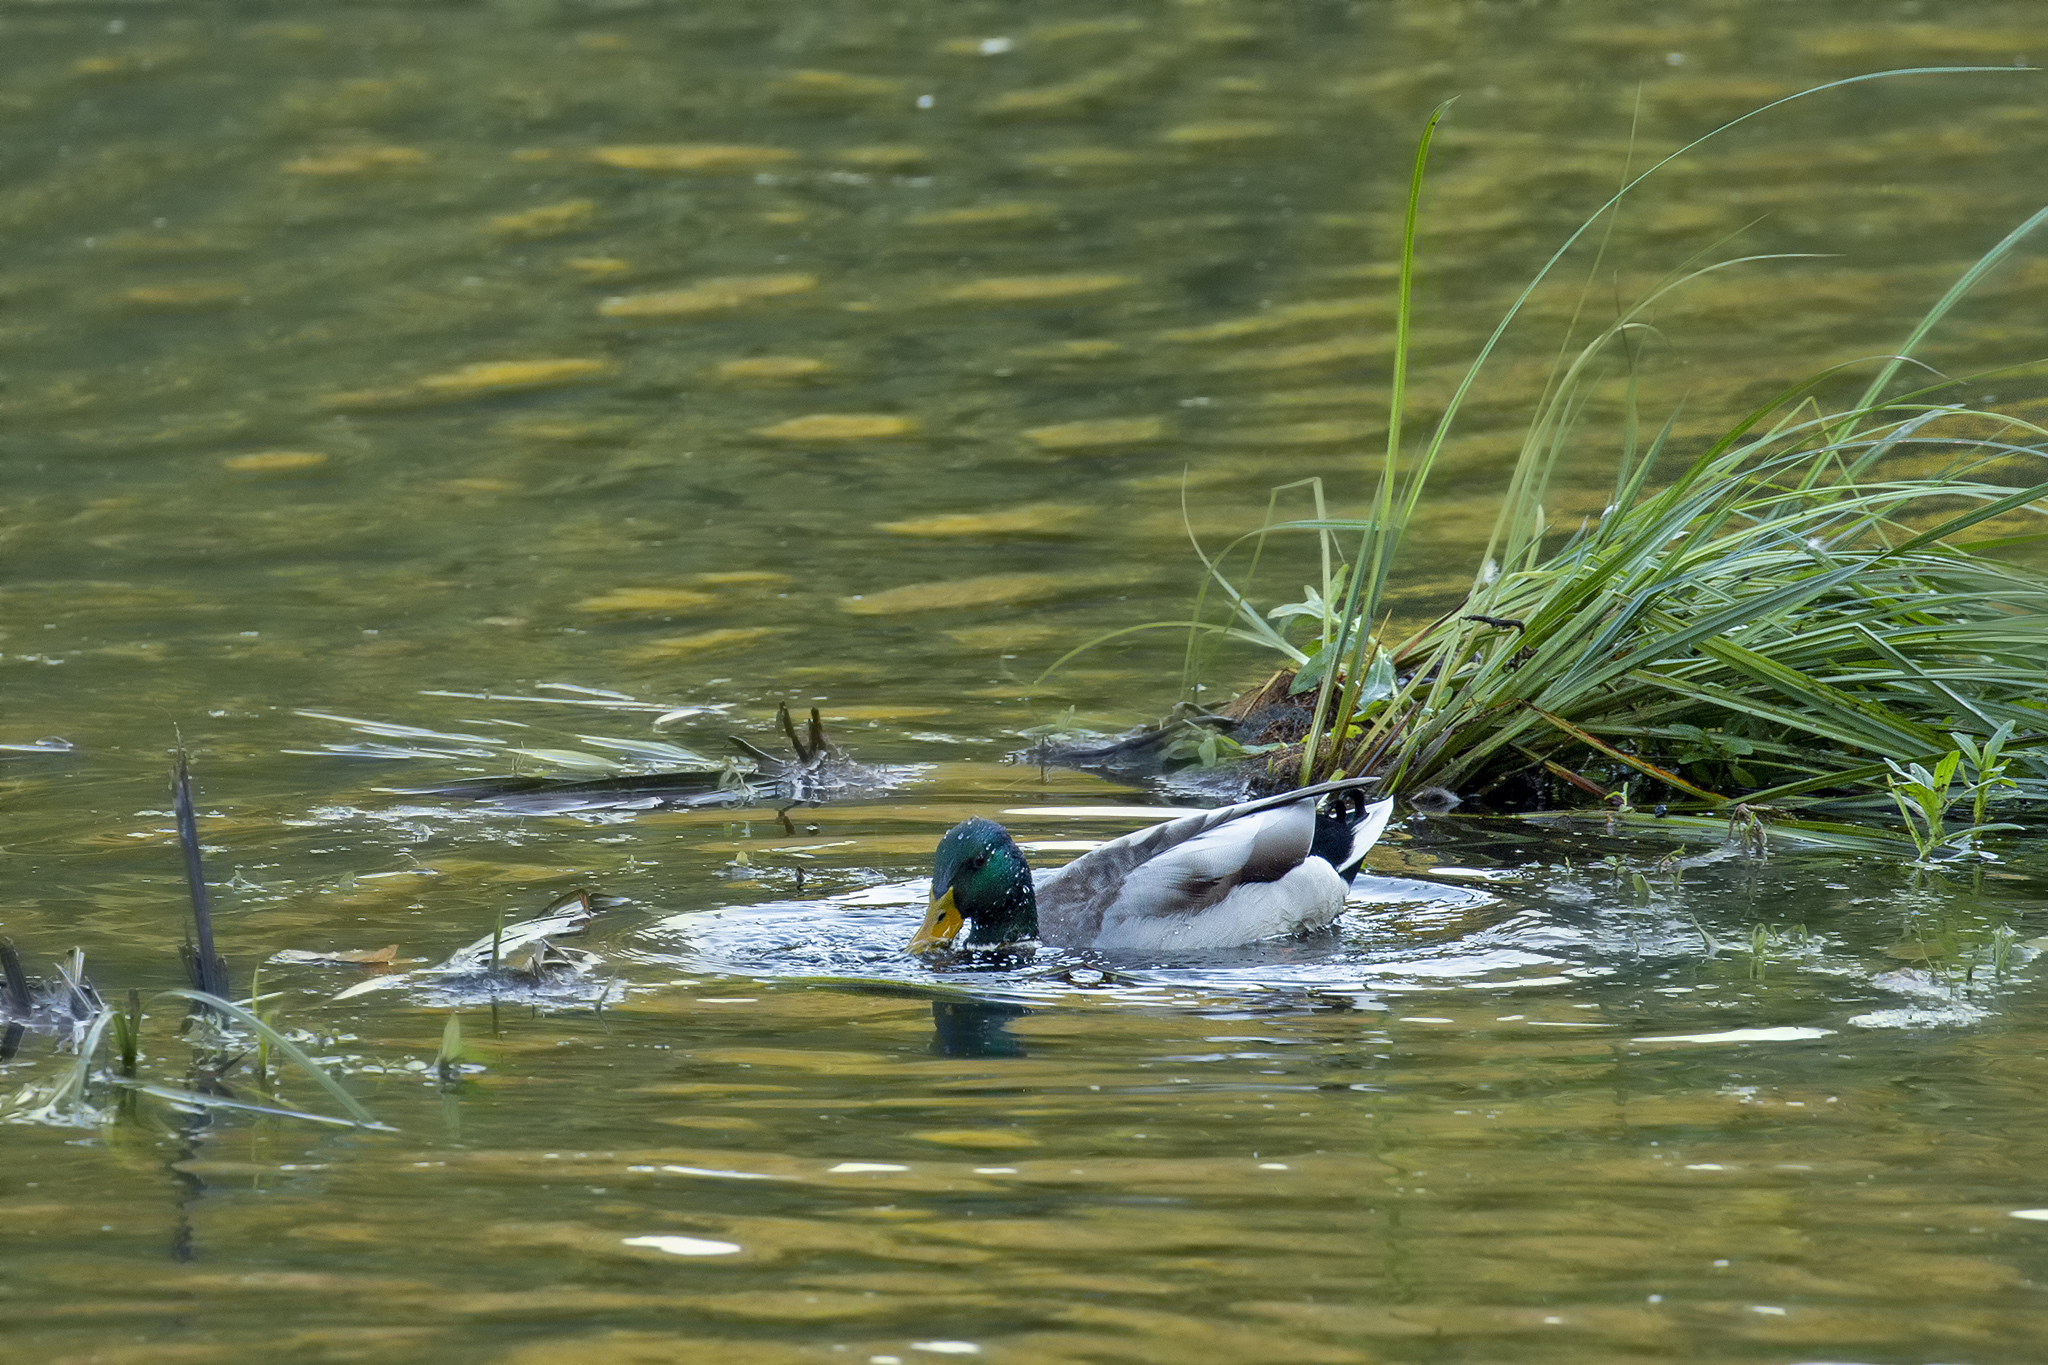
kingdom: Animalia
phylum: Chordata
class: Aves
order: Anseriformes
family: Anatidae
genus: Anas
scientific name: Anas platyrhynchos
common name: Mallard
